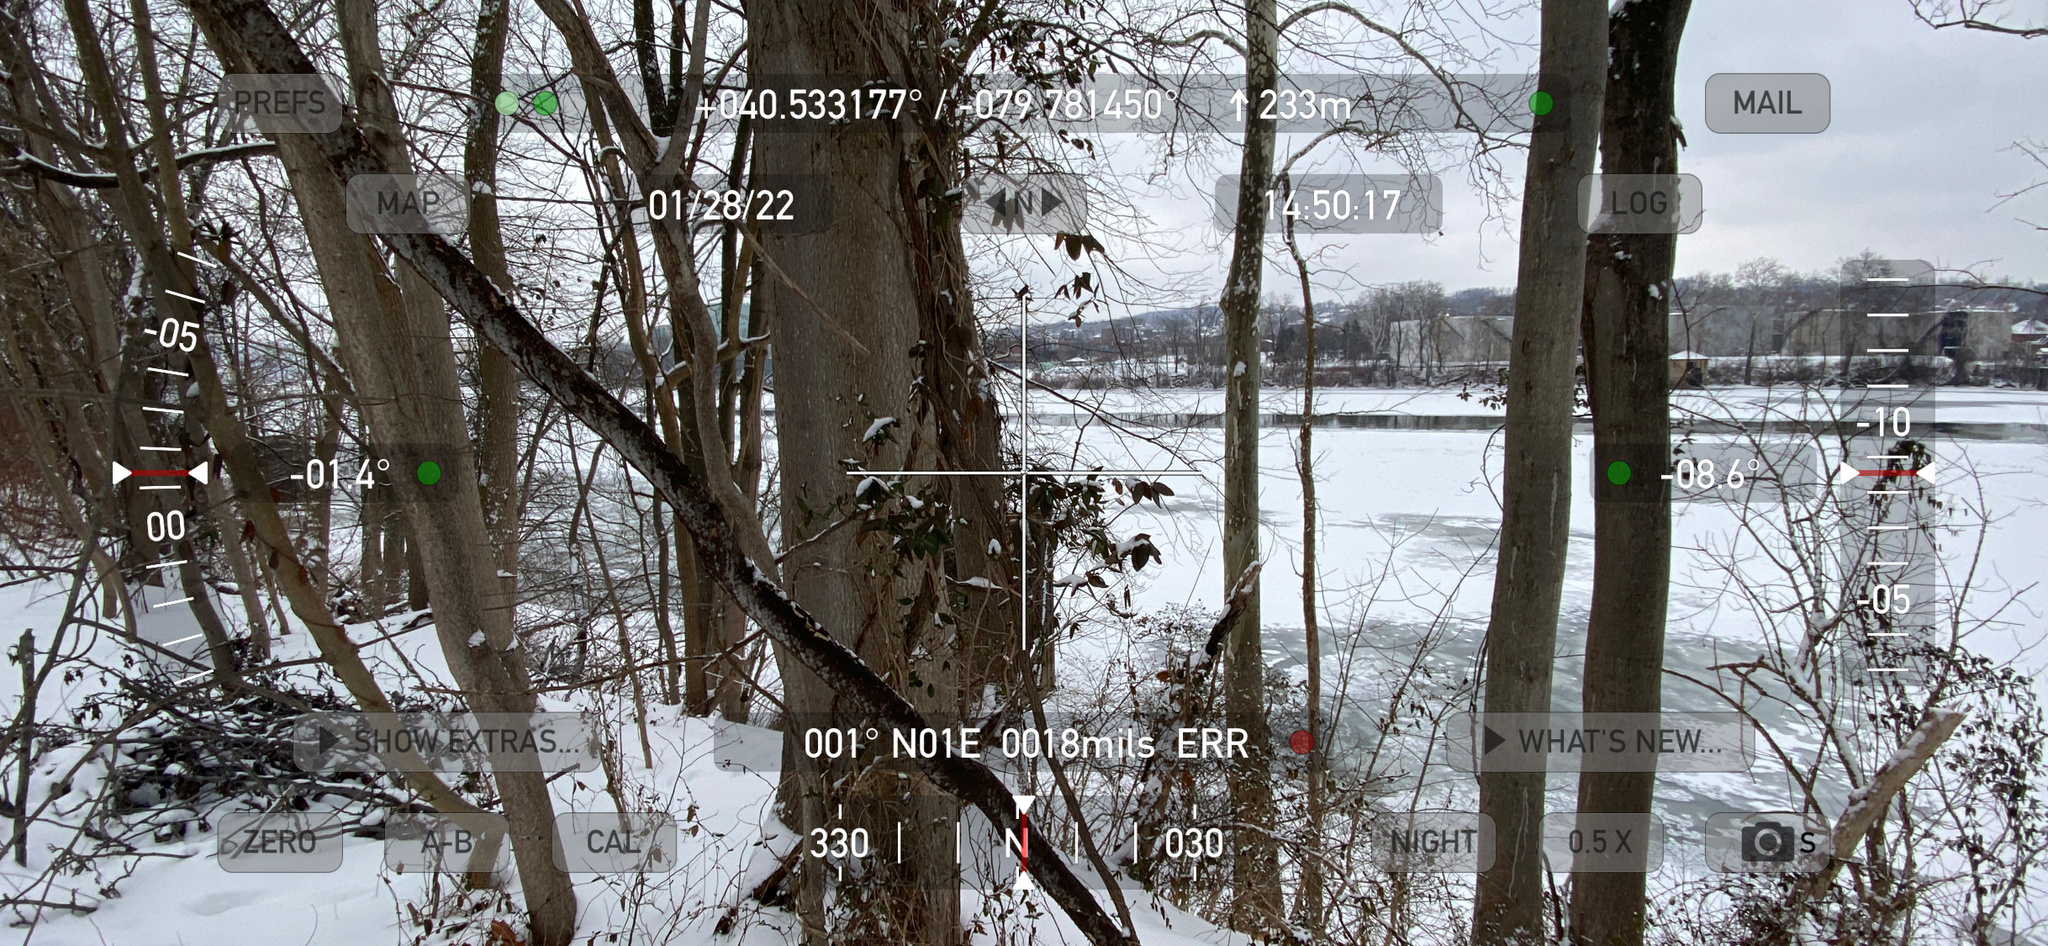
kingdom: Plantae
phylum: Tracheophyta
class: Magnoliopsida
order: Dipsacales
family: Caprifoliaceae
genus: Lonicera
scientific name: Lonicera japonica
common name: Japanese honeysuckle
